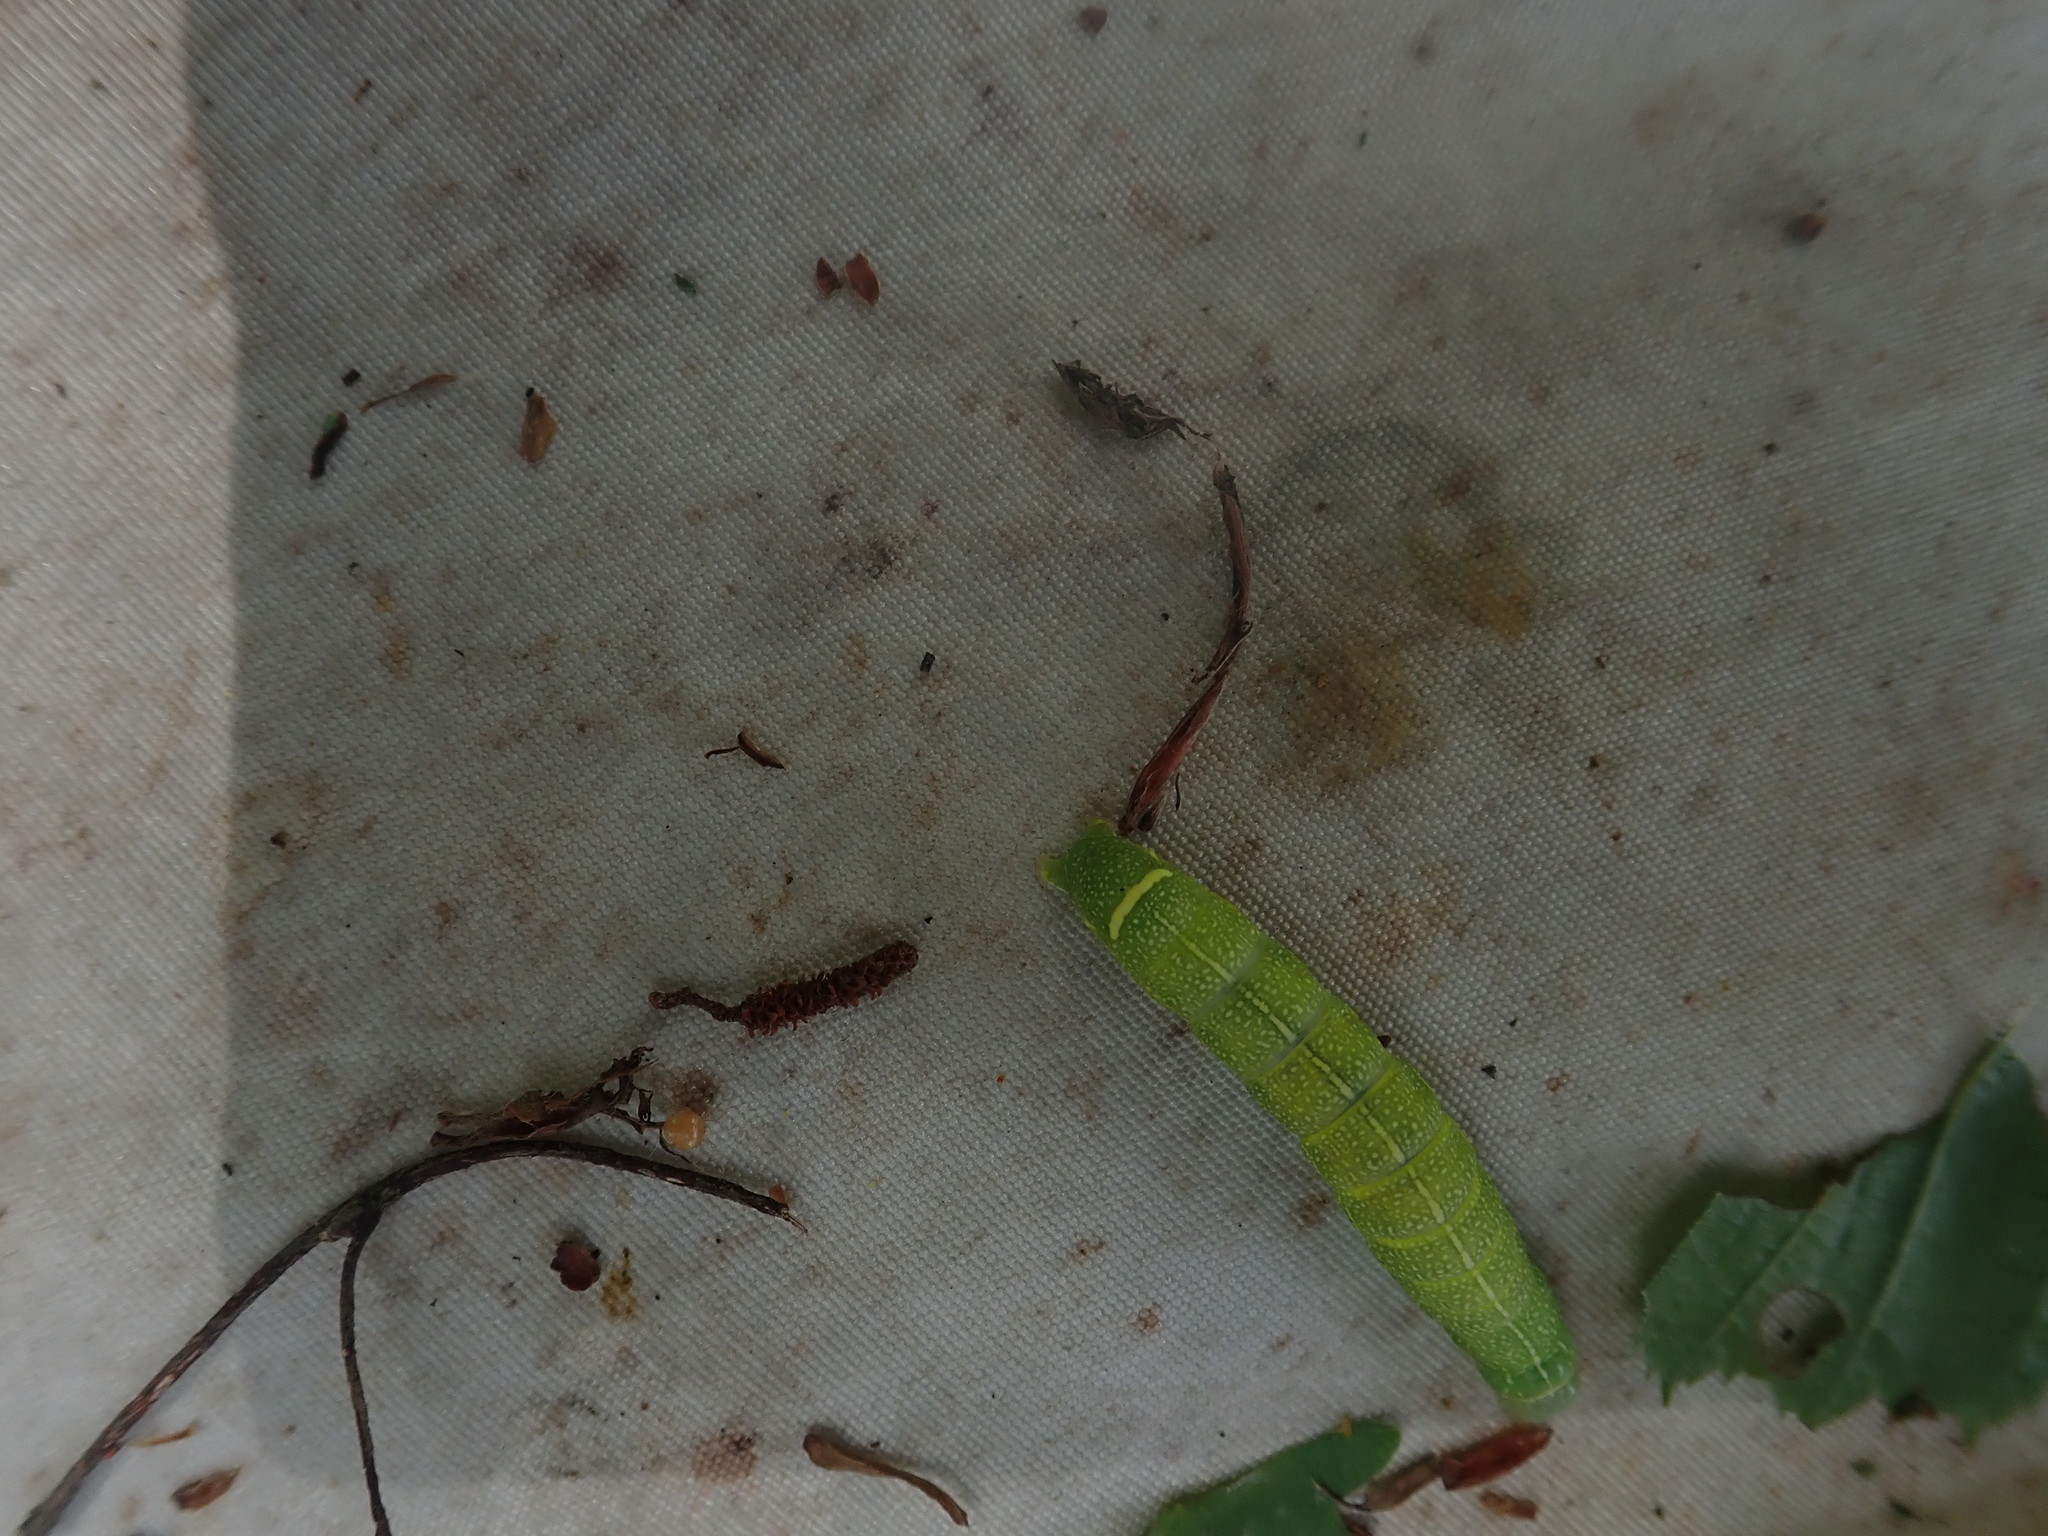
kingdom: Animalia
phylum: Arthropoda
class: Insecta
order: Lepidoptera
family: Noctuidae
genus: Orthosia
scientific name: Orthosia cerasi
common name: Common quaker
